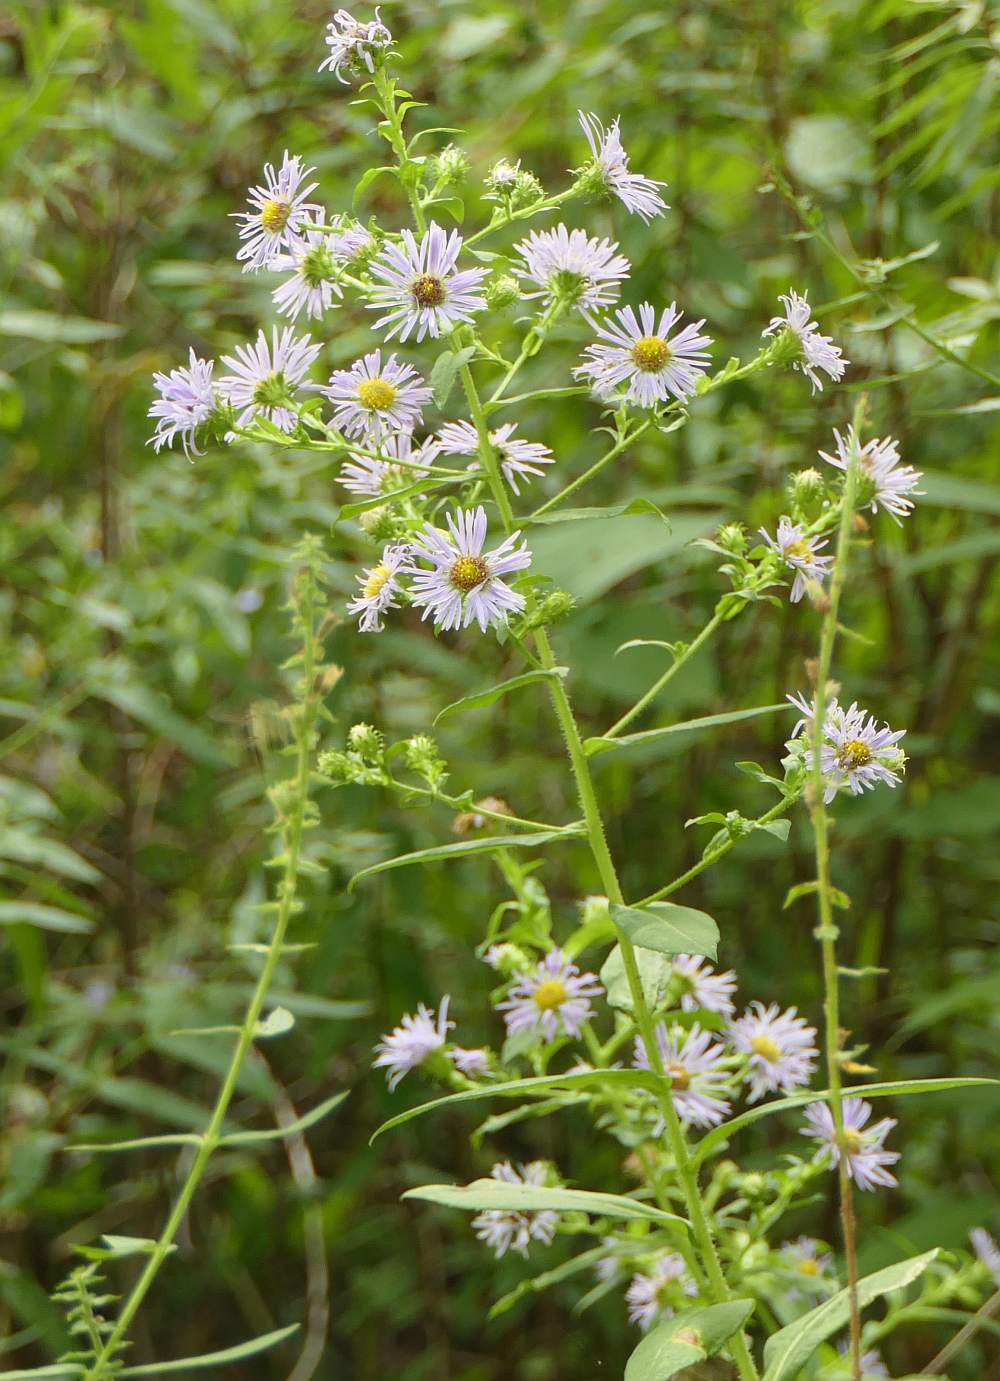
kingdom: Plantae
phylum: Tracheophyta
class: Magnoliopsida
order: Asterales
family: Asteraceae
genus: Symphyotrichum
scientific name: Symphyotrichum puniceum
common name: Bog aster
